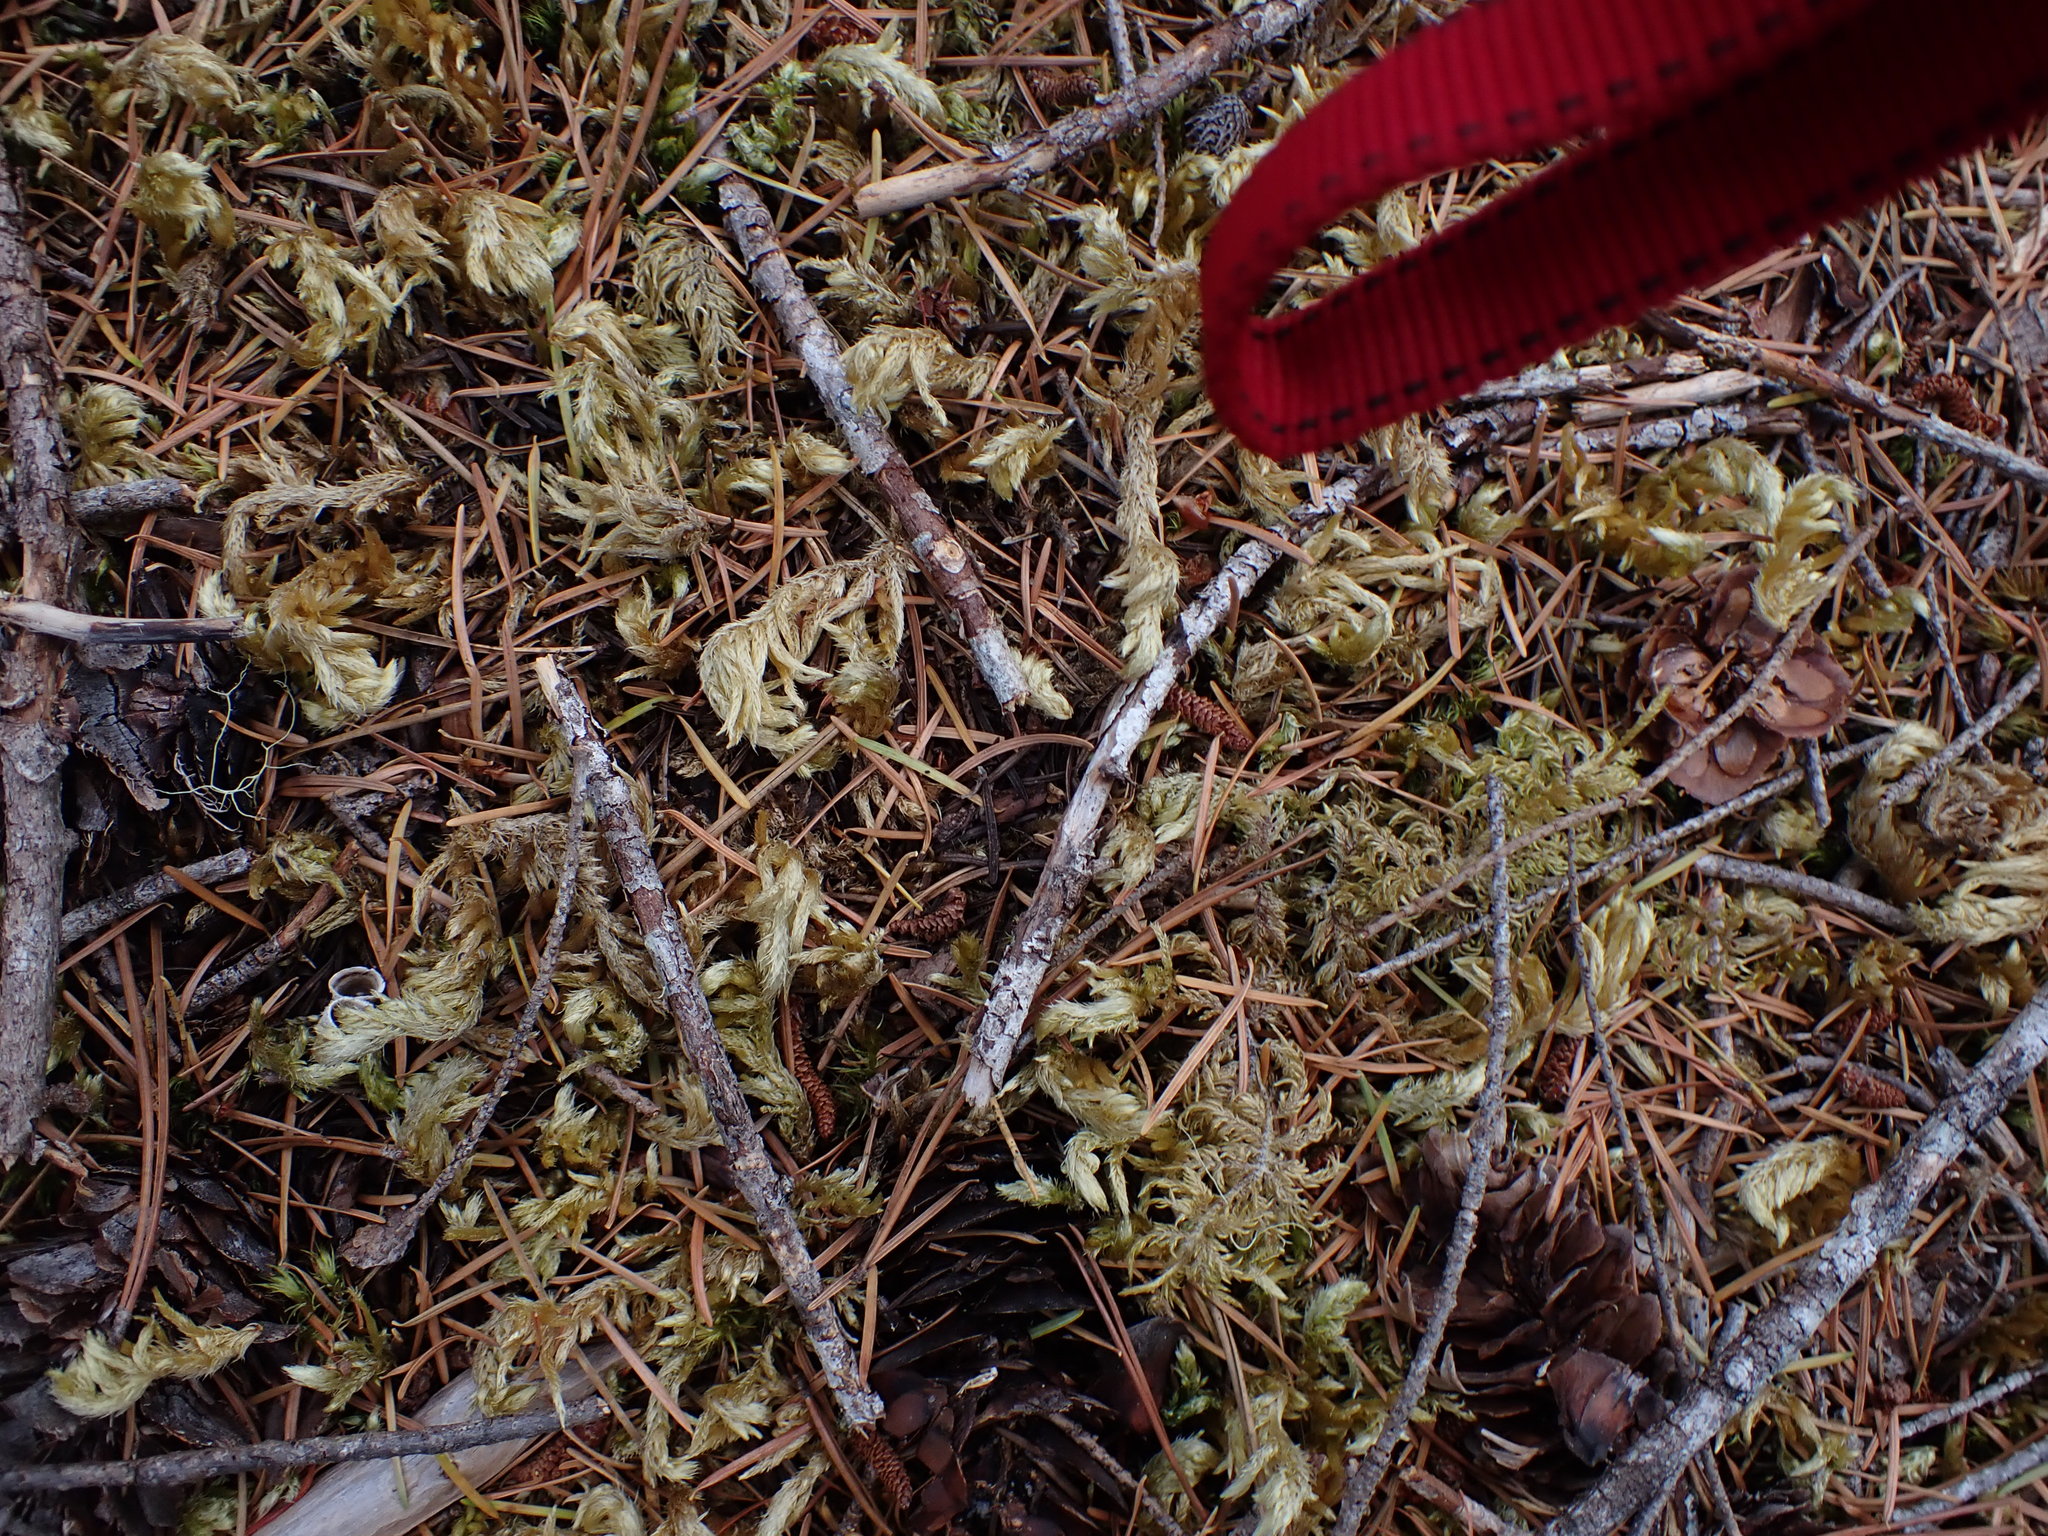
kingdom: Plantae
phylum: Bryophyta
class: Bryopsida
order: Hypnales
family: Brachytheciaceae
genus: Homalothecium
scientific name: Homalothecium megaptilum
